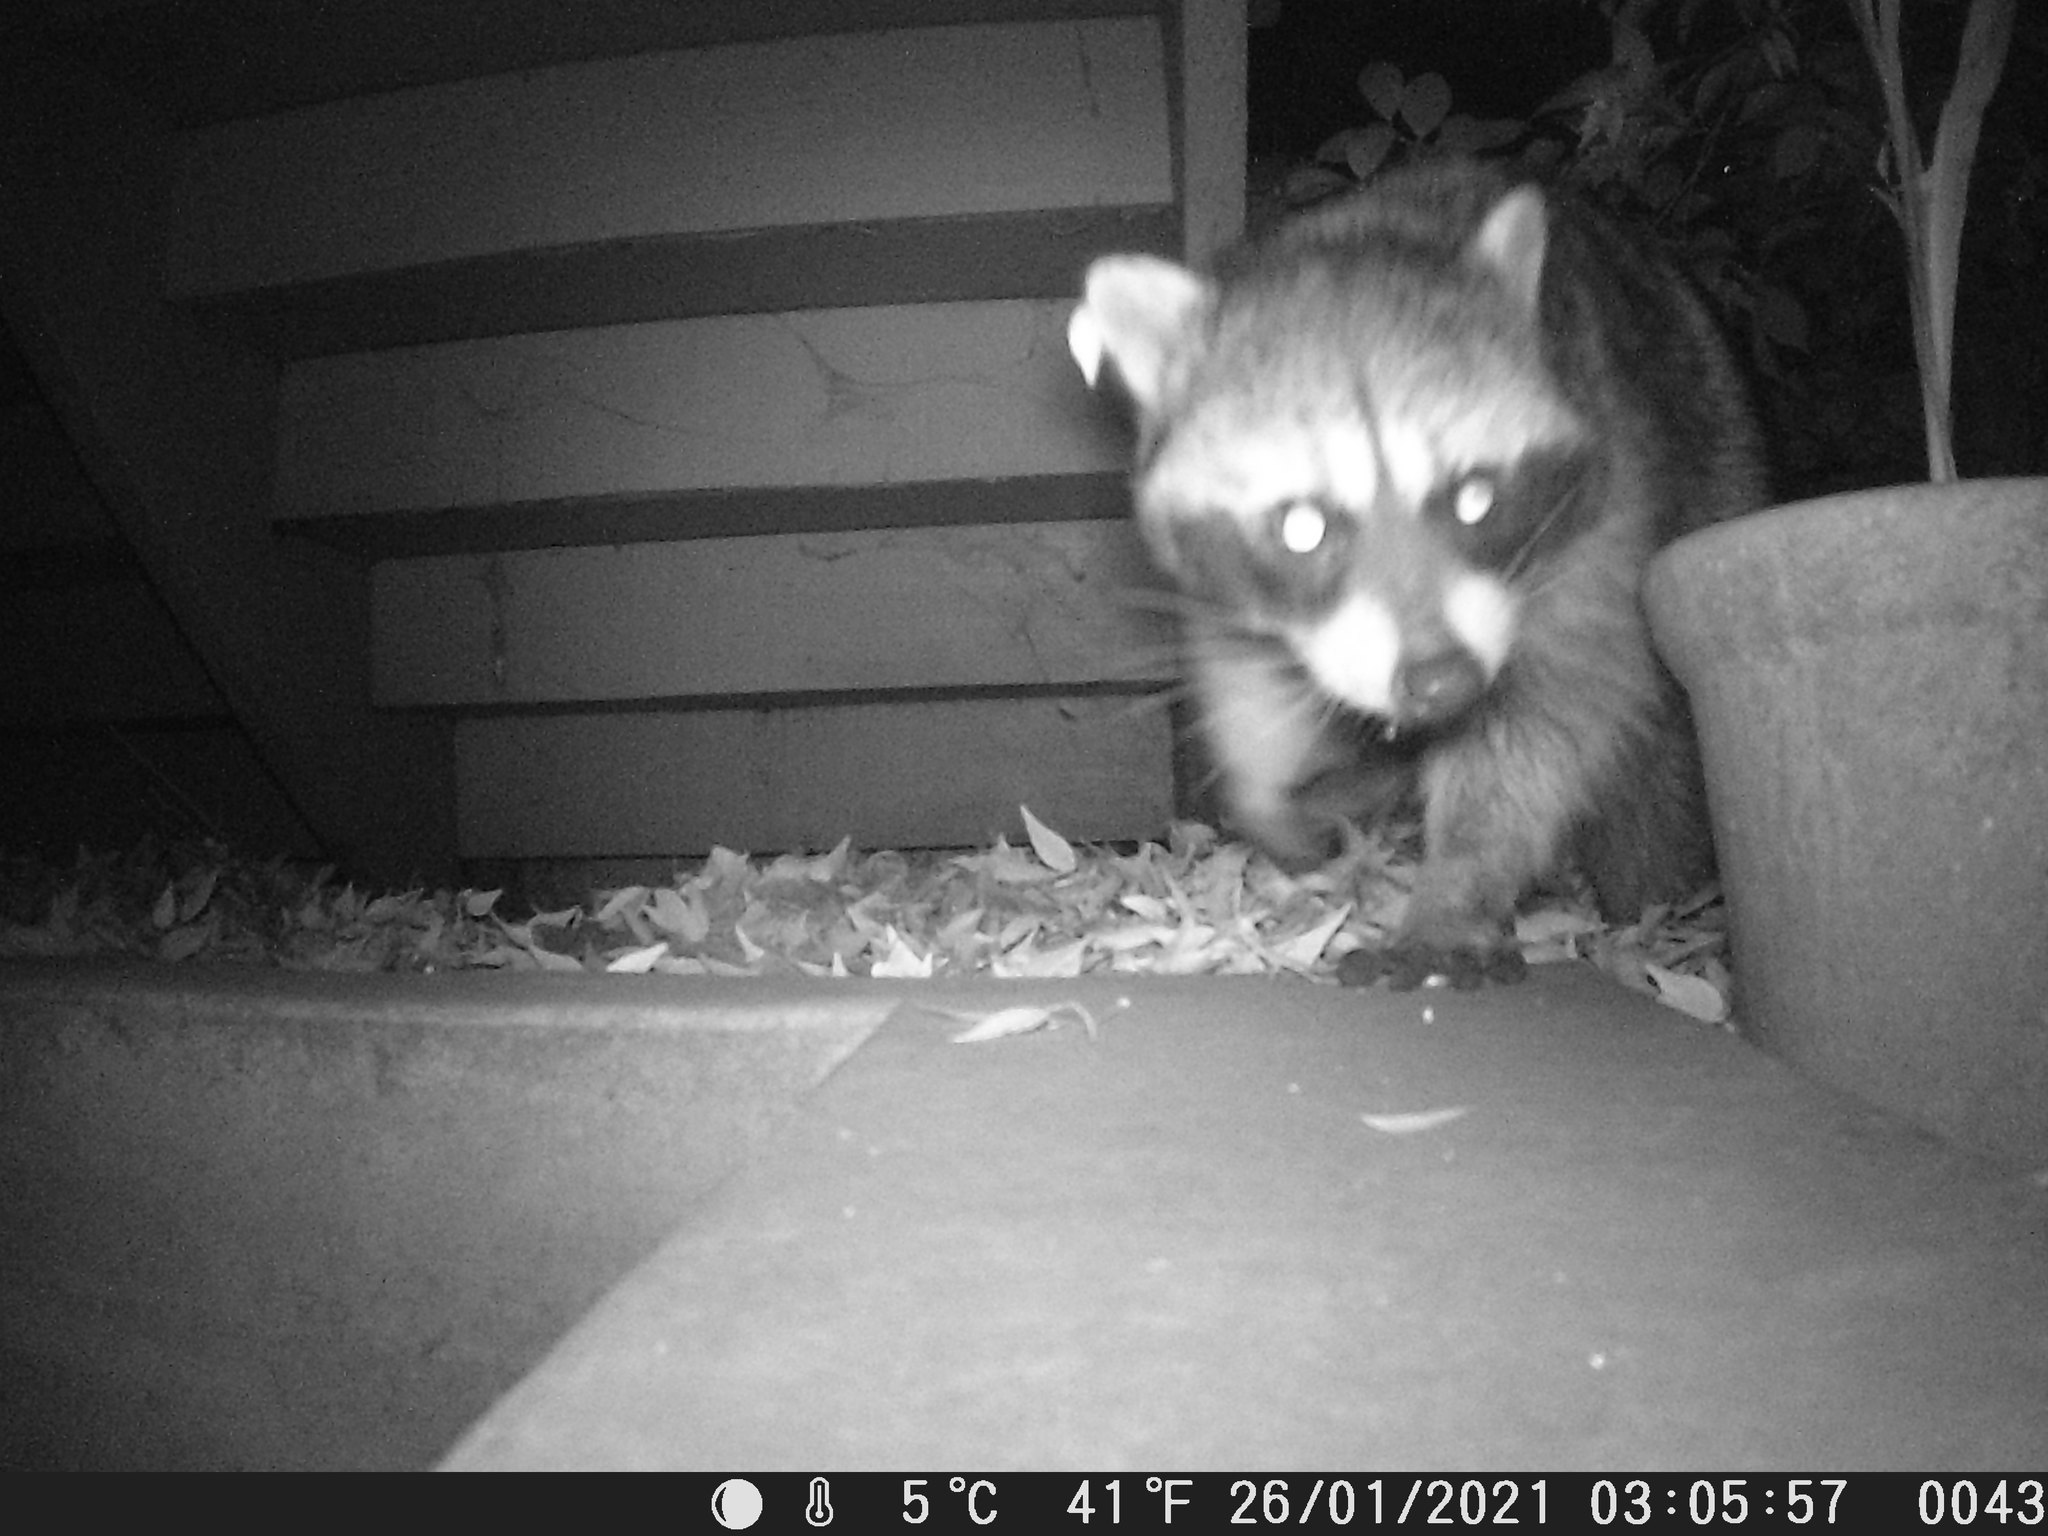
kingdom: Animalia
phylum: Chordata
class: Mammalia
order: Carnivora
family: Procyonidae
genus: Procyon
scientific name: Procyon lotor
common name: Raccoon
